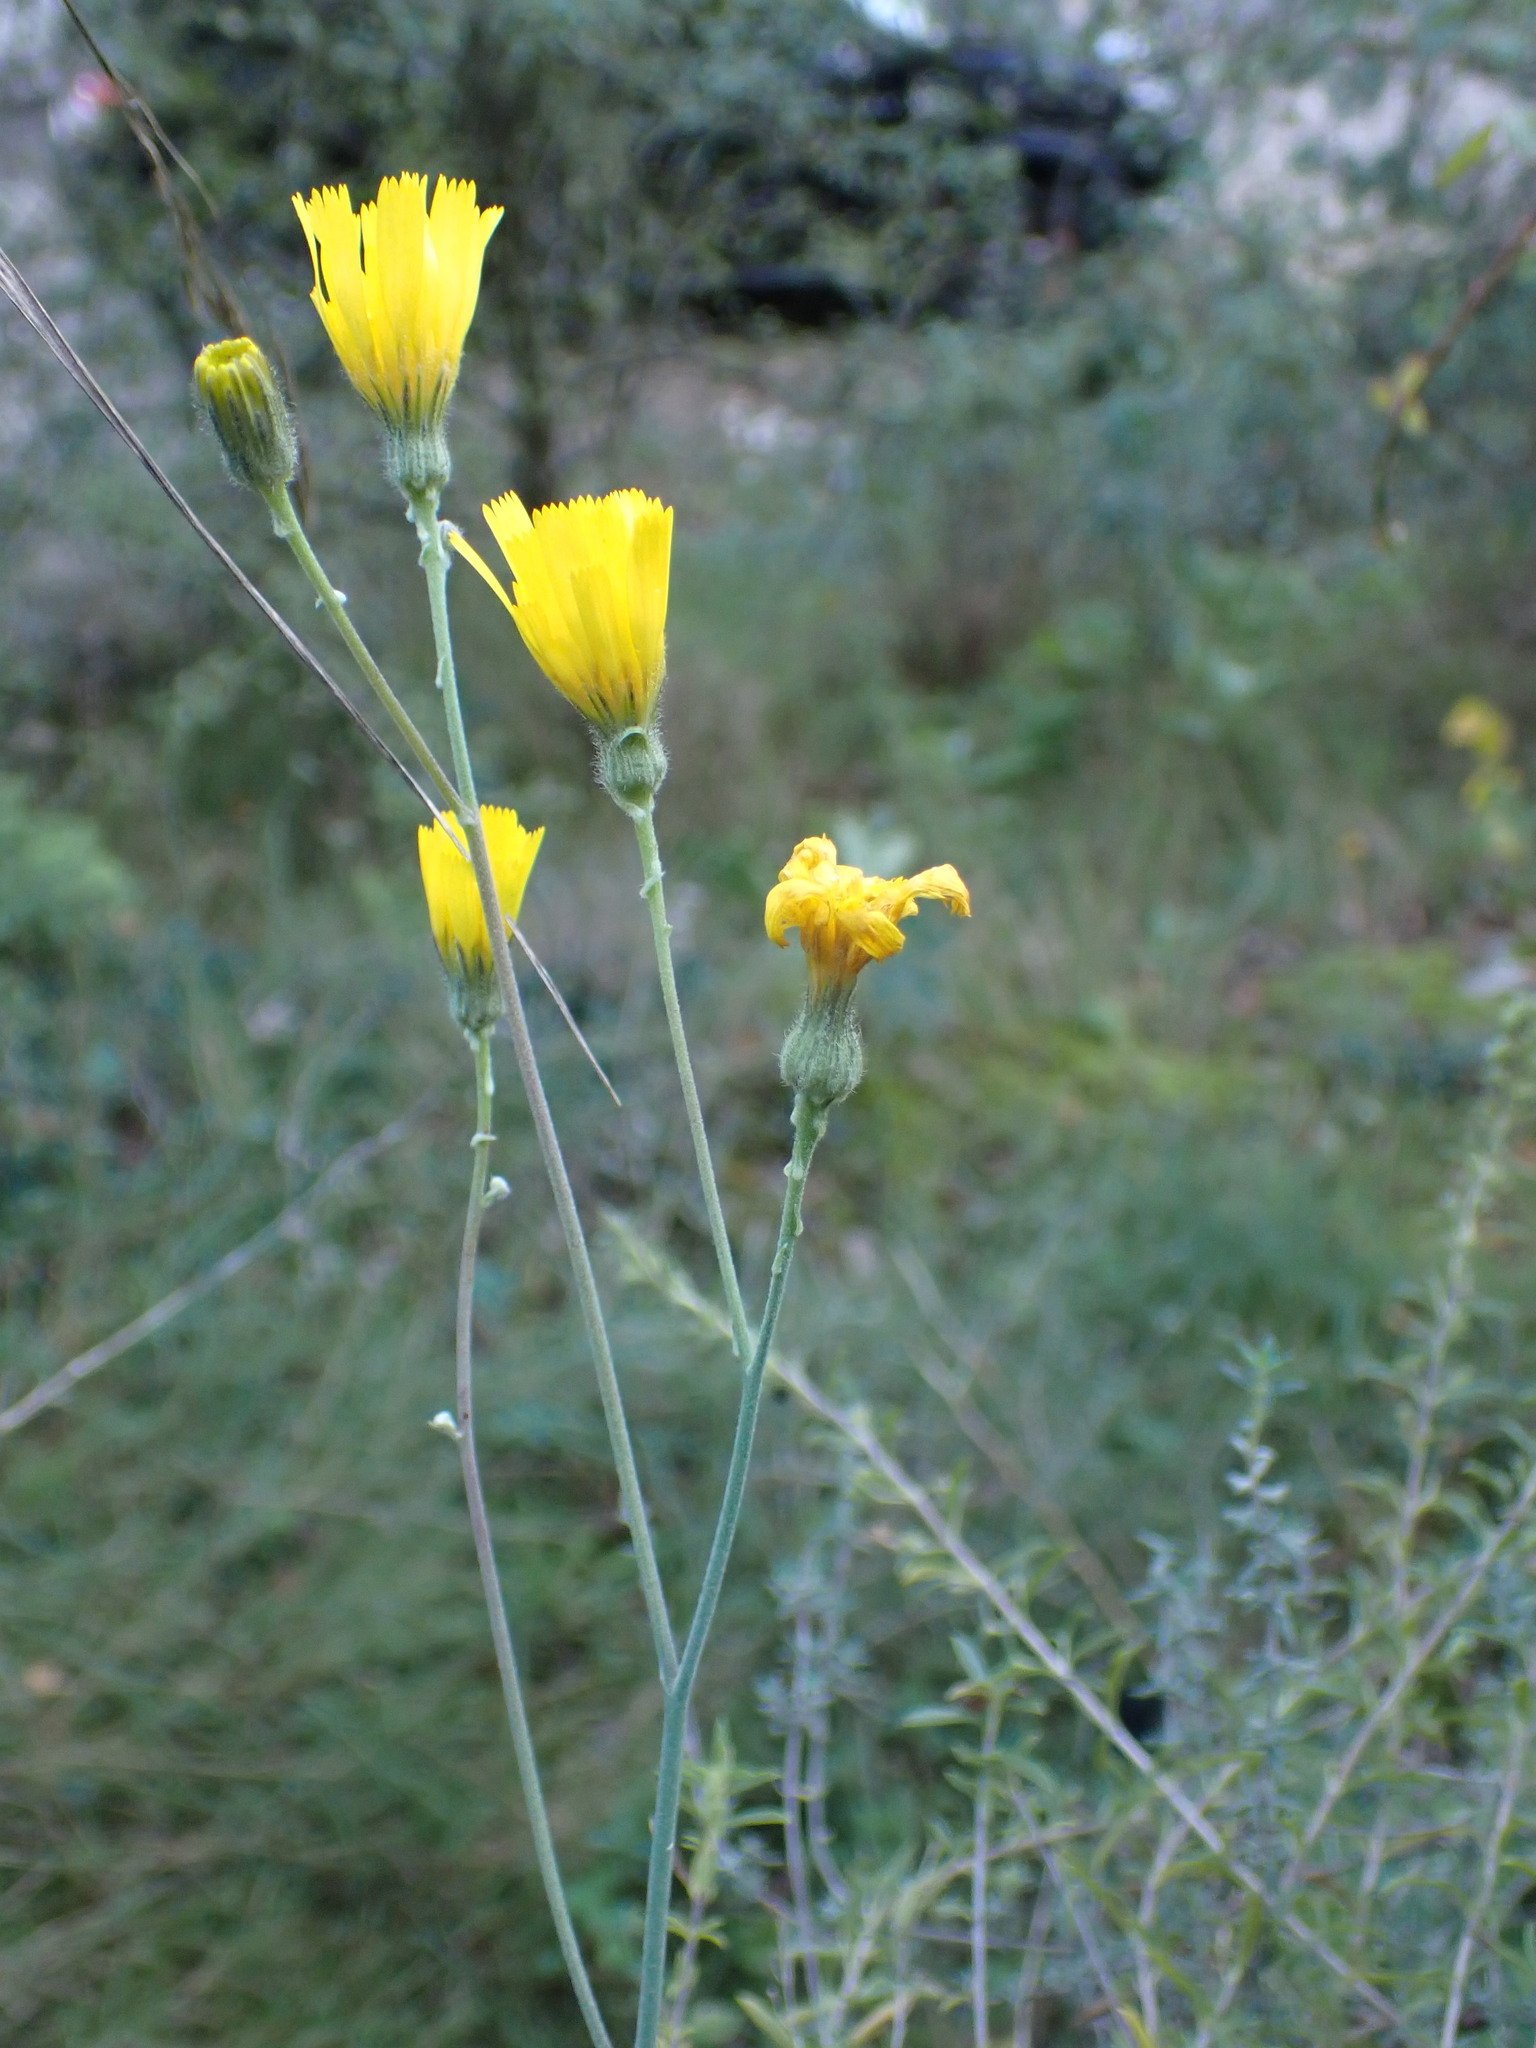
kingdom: Plantae
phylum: Tracheophyta
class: Magnoliopsida
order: Asterales
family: Asteraceae
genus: Hieracium
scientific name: Hieracium glaucinum
